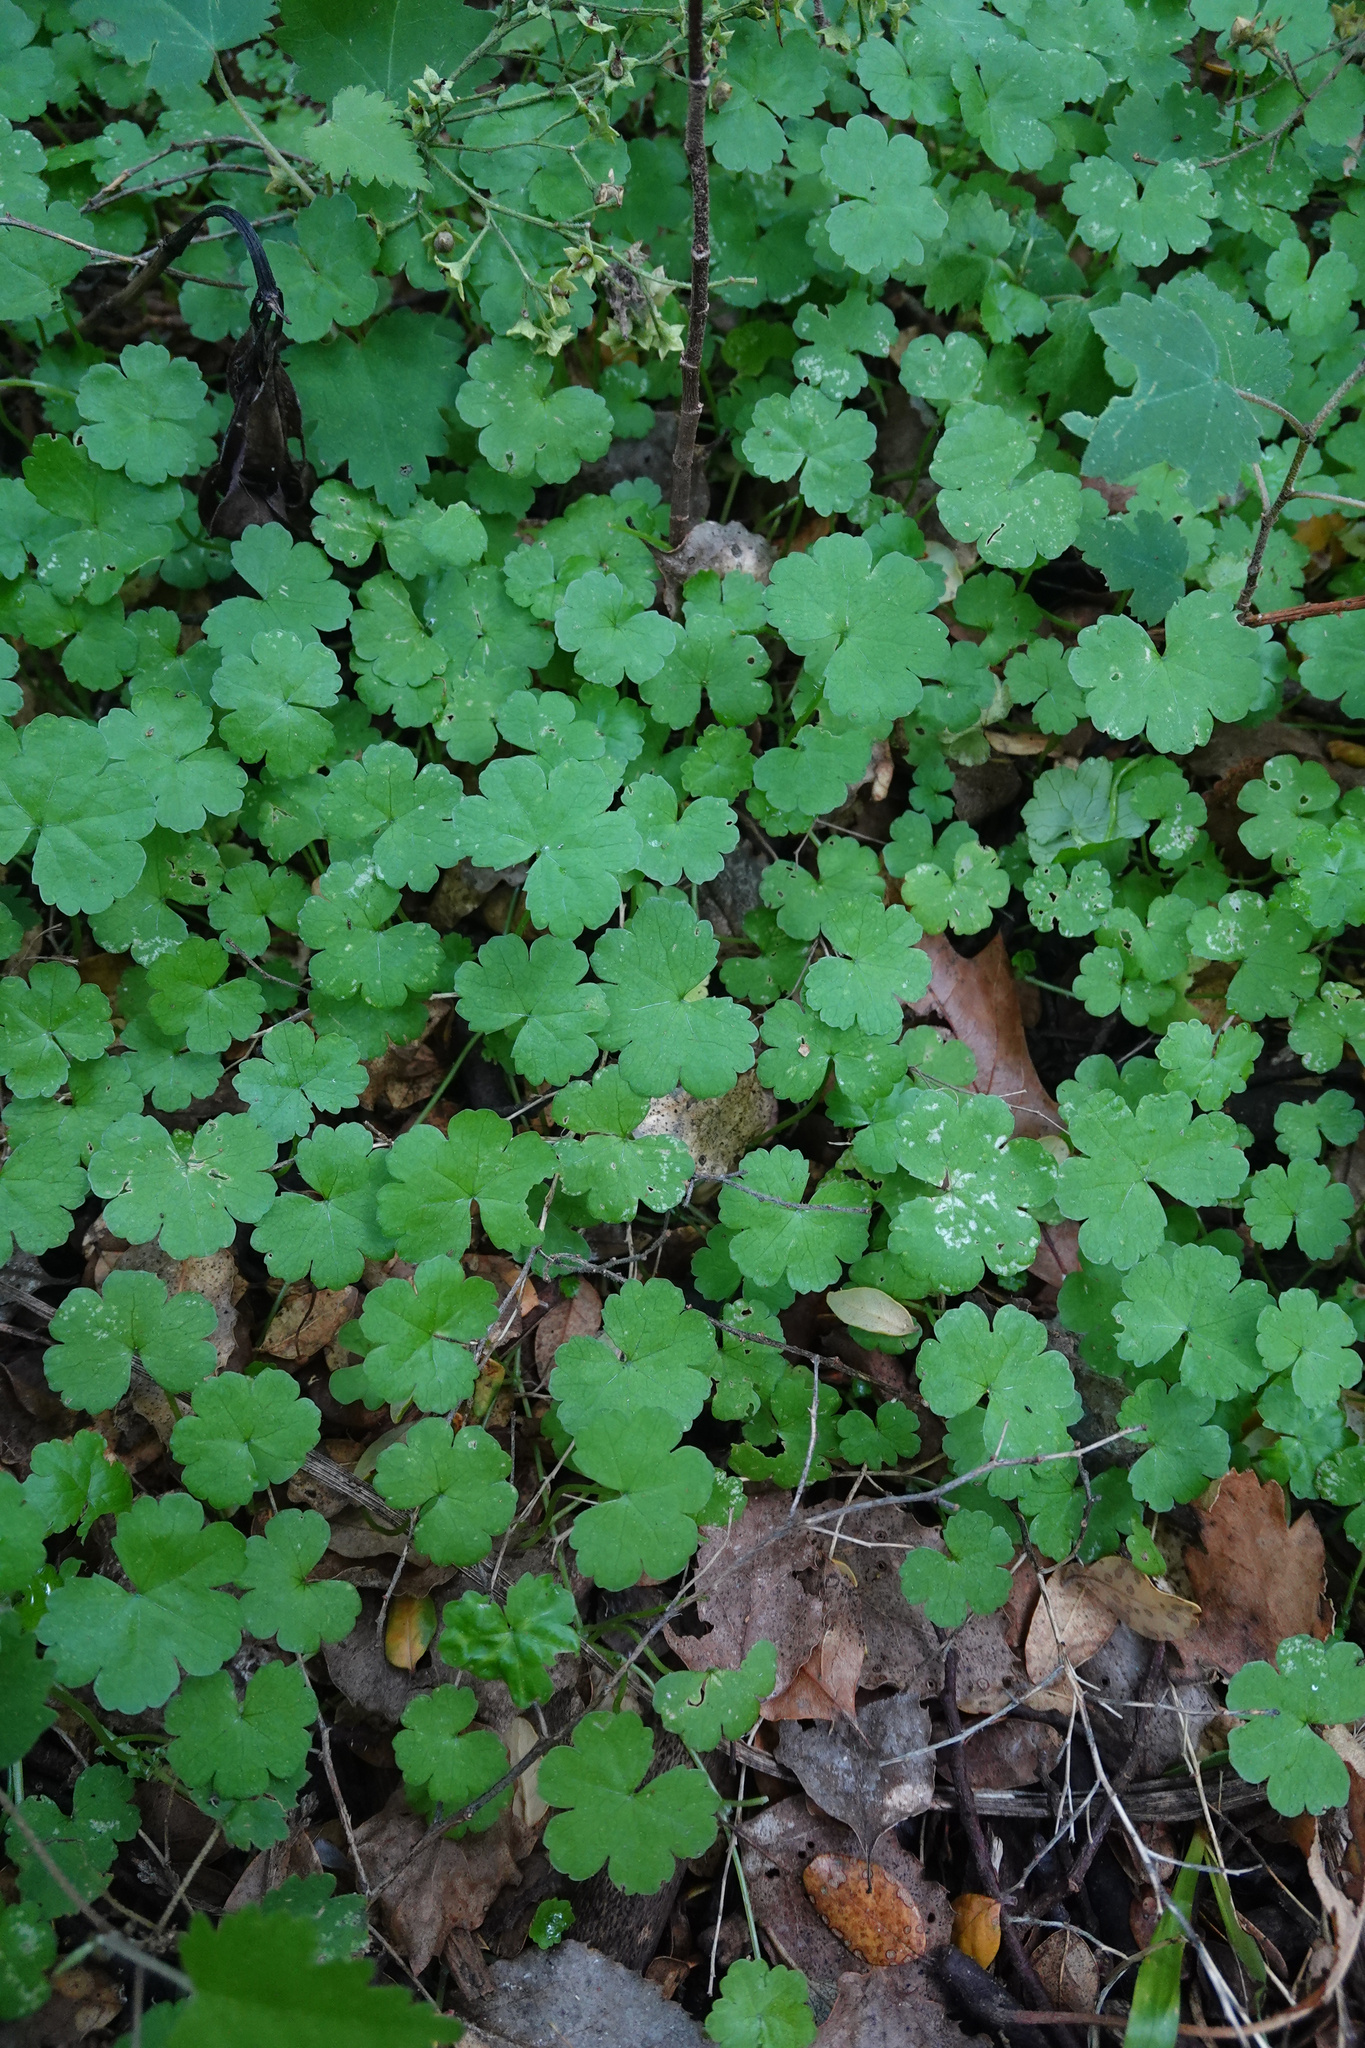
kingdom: Plantae
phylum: Tracheophyta
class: Magnoliopsida
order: Apiales
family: Araliaceae
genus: Hydrocotyle
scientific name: Hydrocotyle heteromeria
